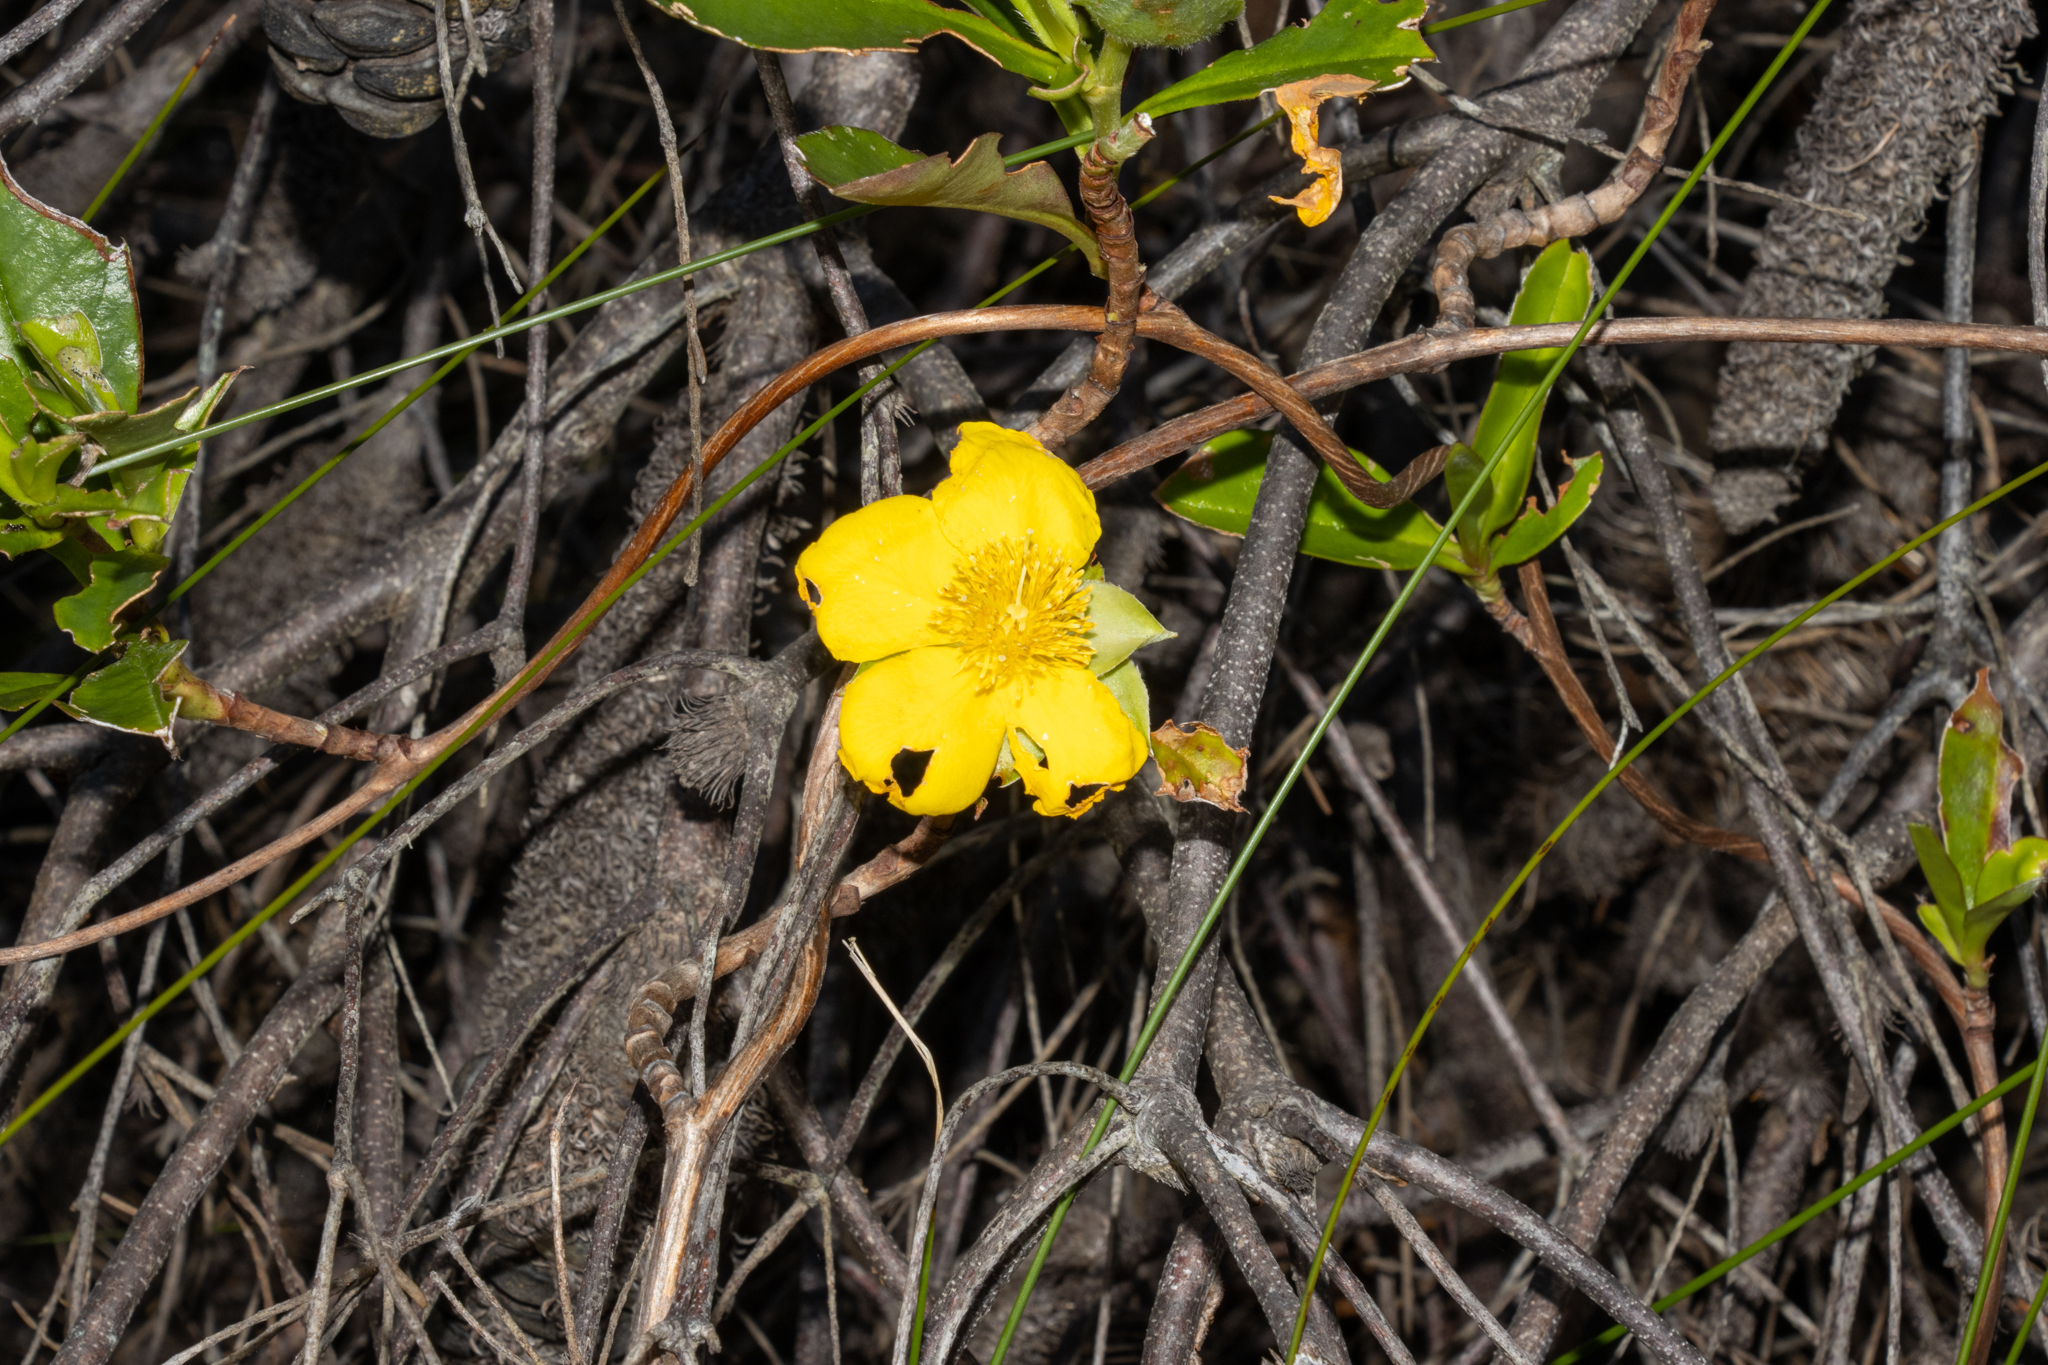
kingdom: Plantae
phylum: Tracheophyta
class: Magnoliopsida
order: Dilleniales
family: Dilleniaceae
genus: Hibbertia
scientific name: Hibbertia scandens
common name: Climbing guinea-flower
